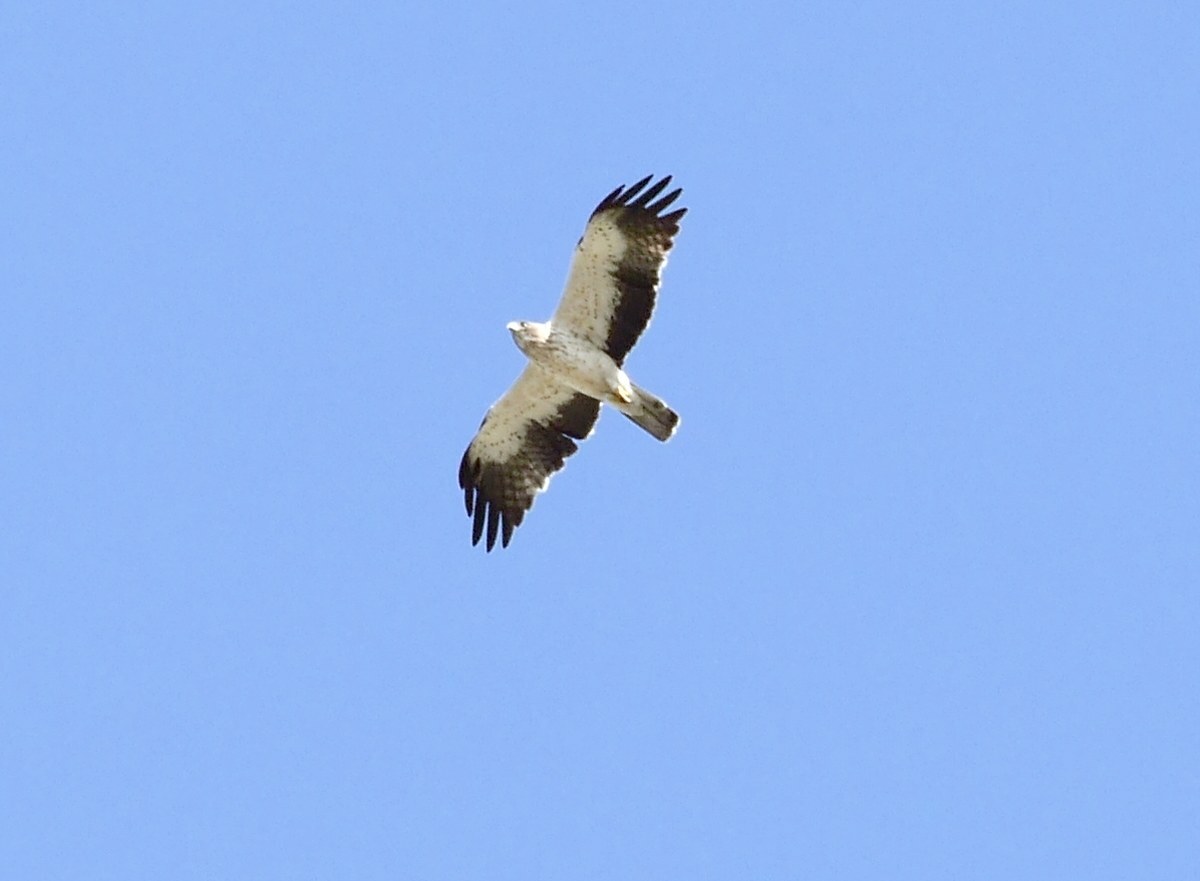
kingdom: Animalia
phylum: Chordata
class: Aves
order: Accipitriformes
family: Accipitridae
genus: Hieraaetus
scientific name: Hieraaetus pennatus
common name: Booted eagle
